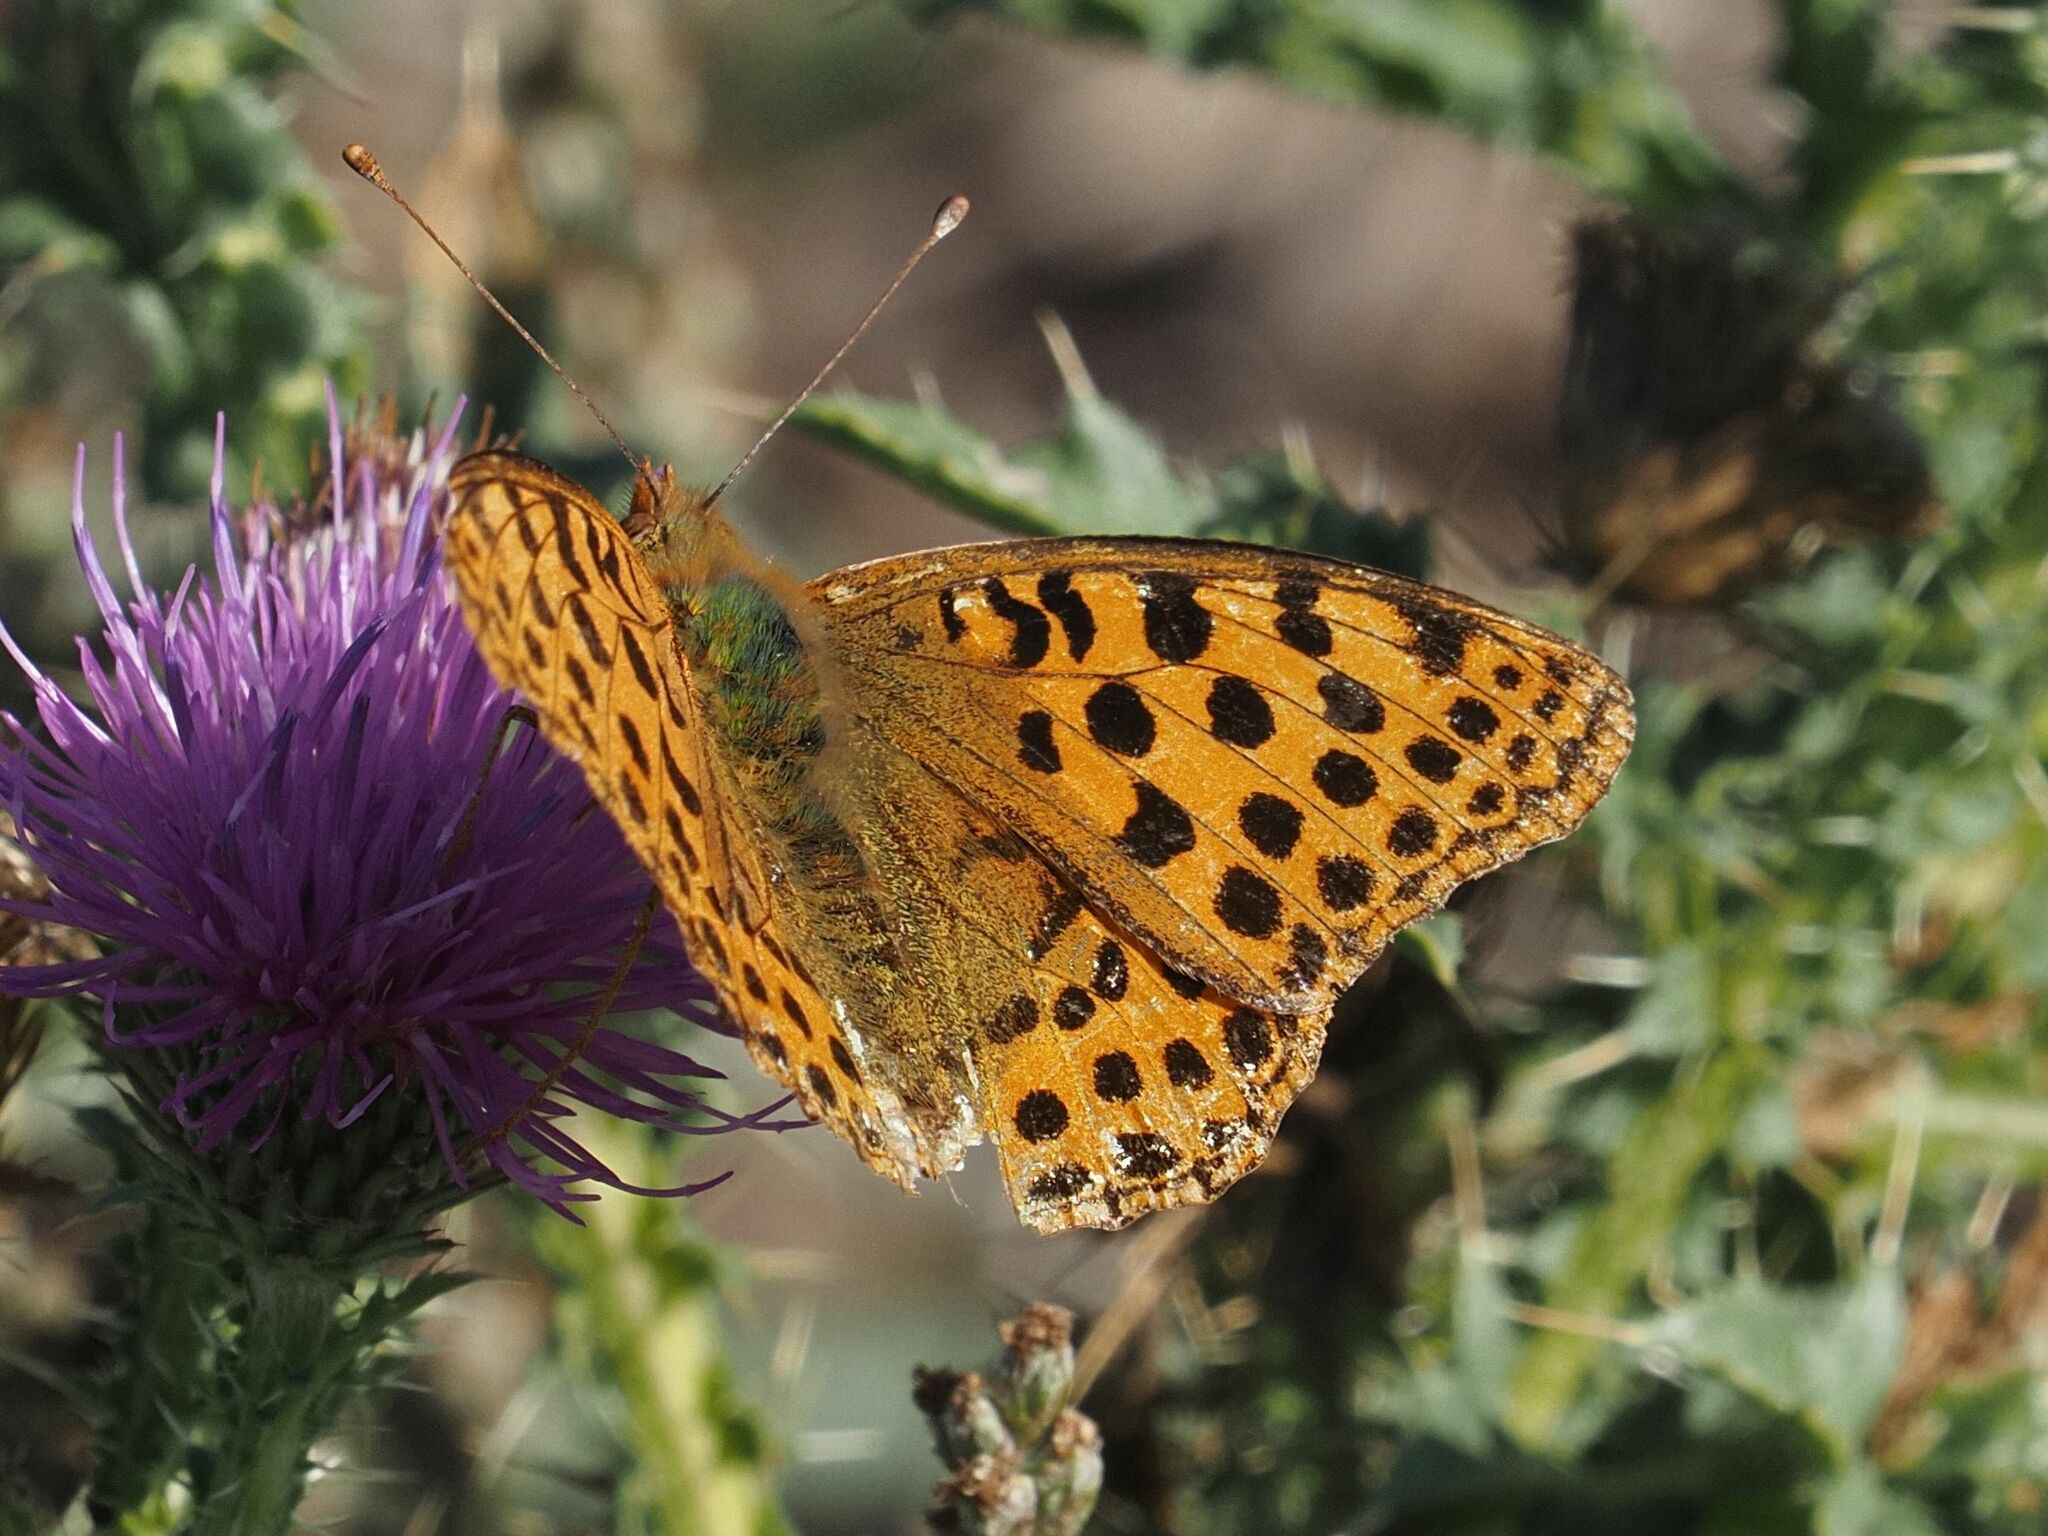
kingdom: Animalia
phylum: Arthropoda
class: Insecta
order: Lepidoptera
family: Nymphalidae
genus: Issoria
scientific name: Issoria lathonia
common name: Queen of spain fritillary
